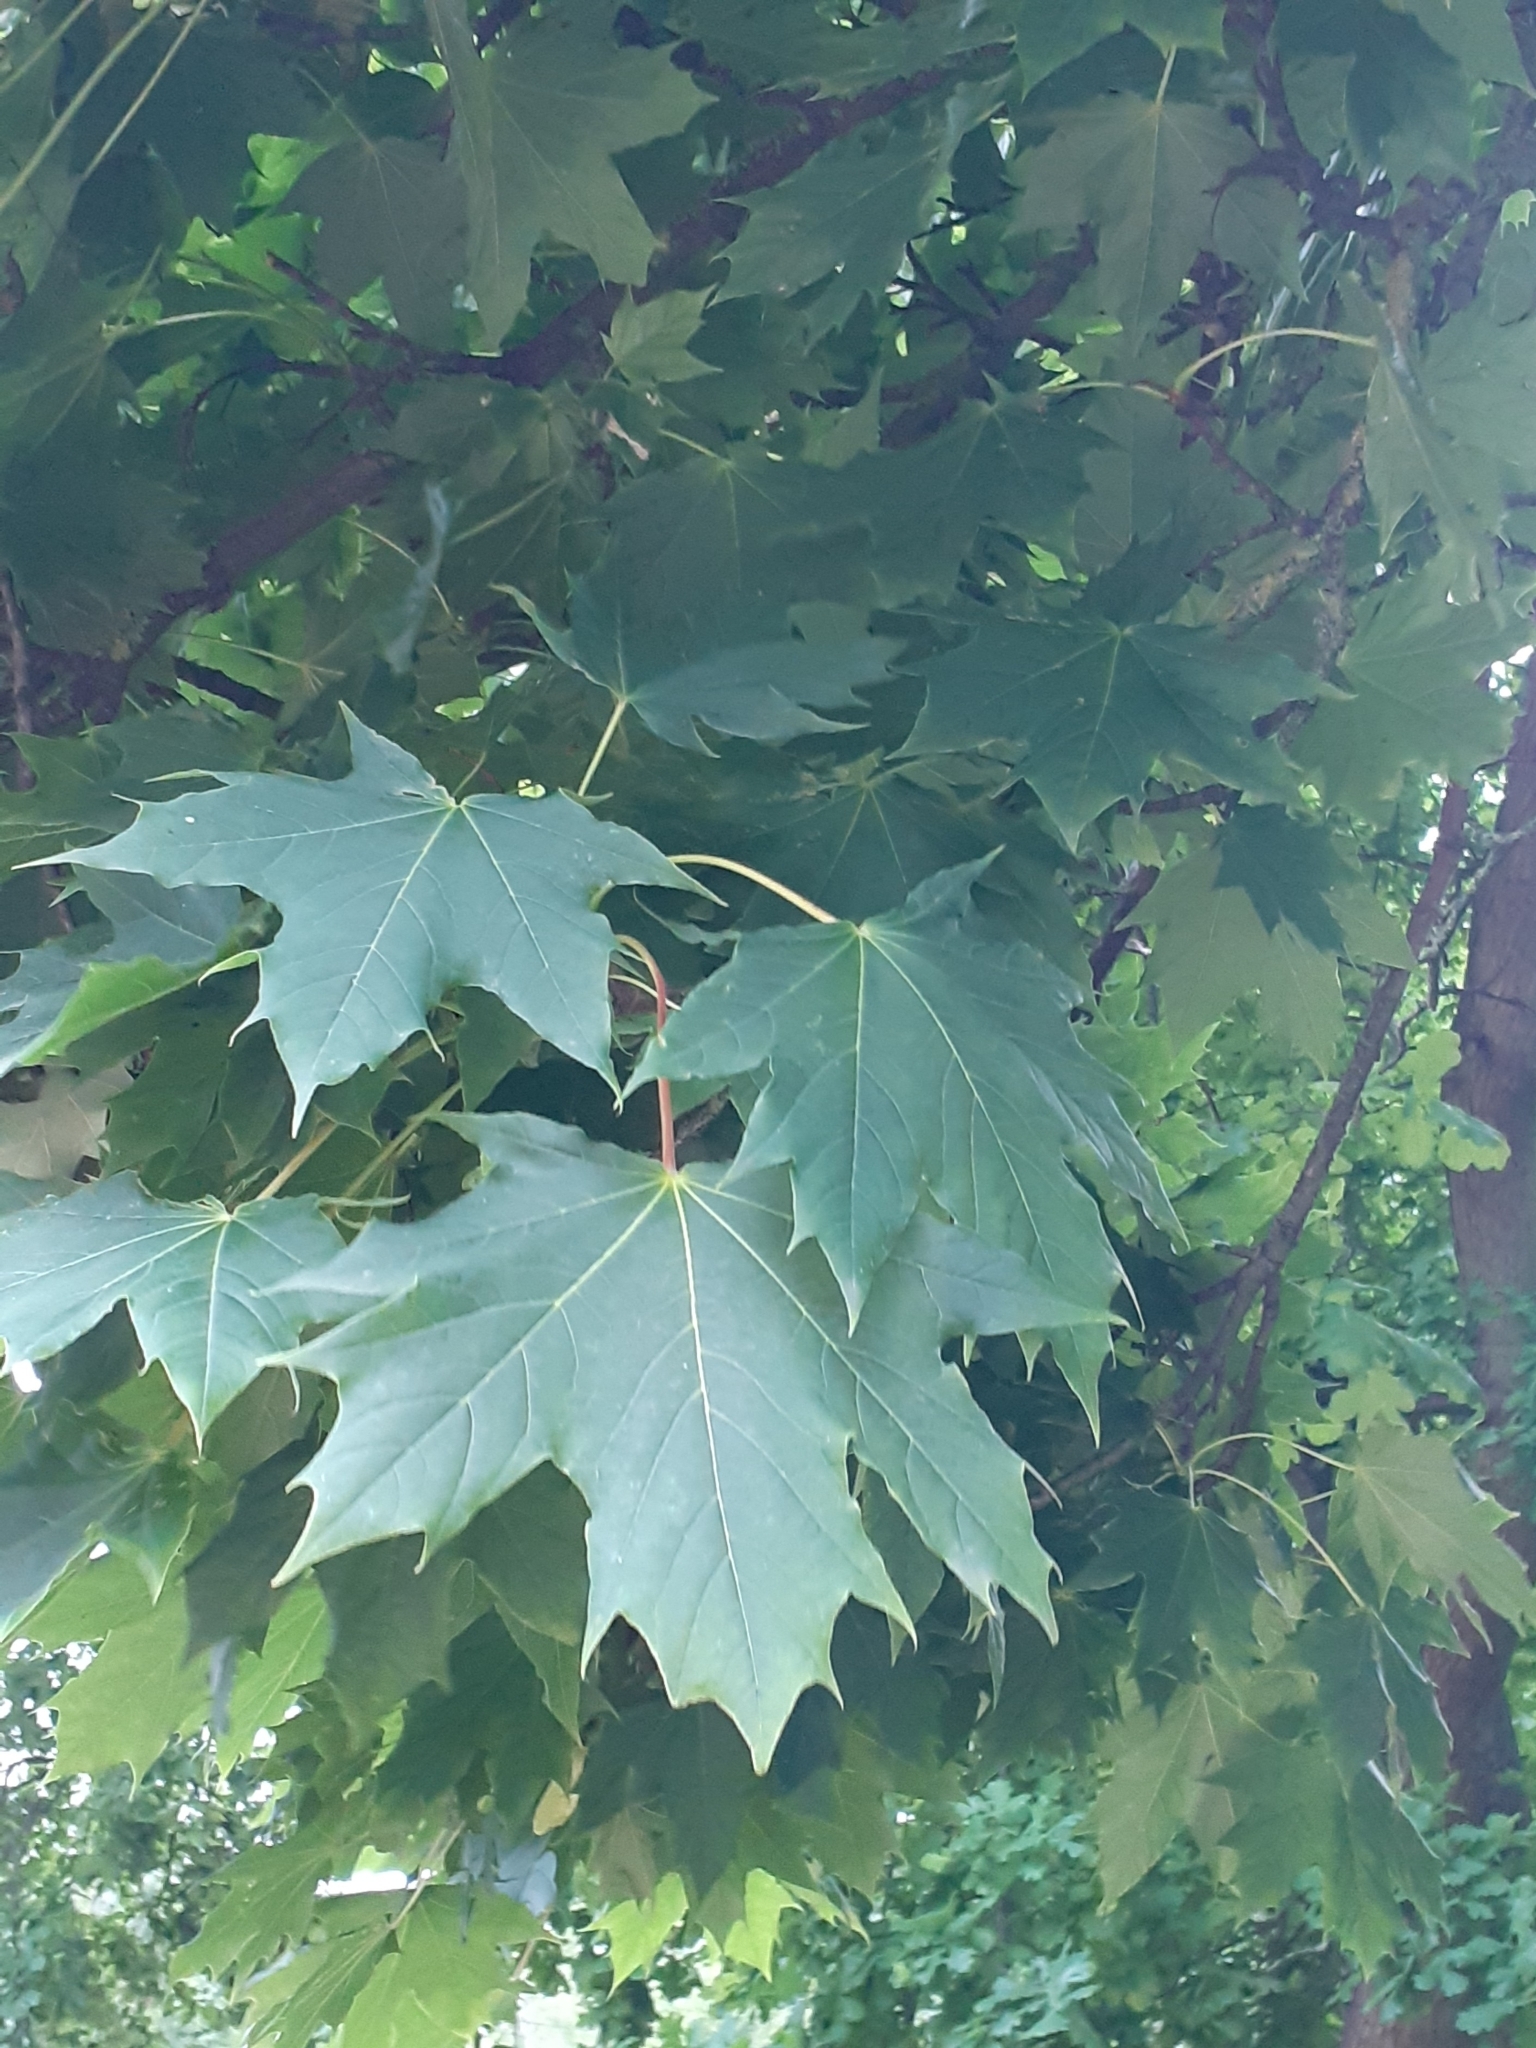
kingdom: Plantae
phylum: Tracheophyta
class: Magnoliopsida
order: Sapindales
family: Sapindaceae
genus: Acer
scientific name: Acer platanoides
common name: Norway maple
